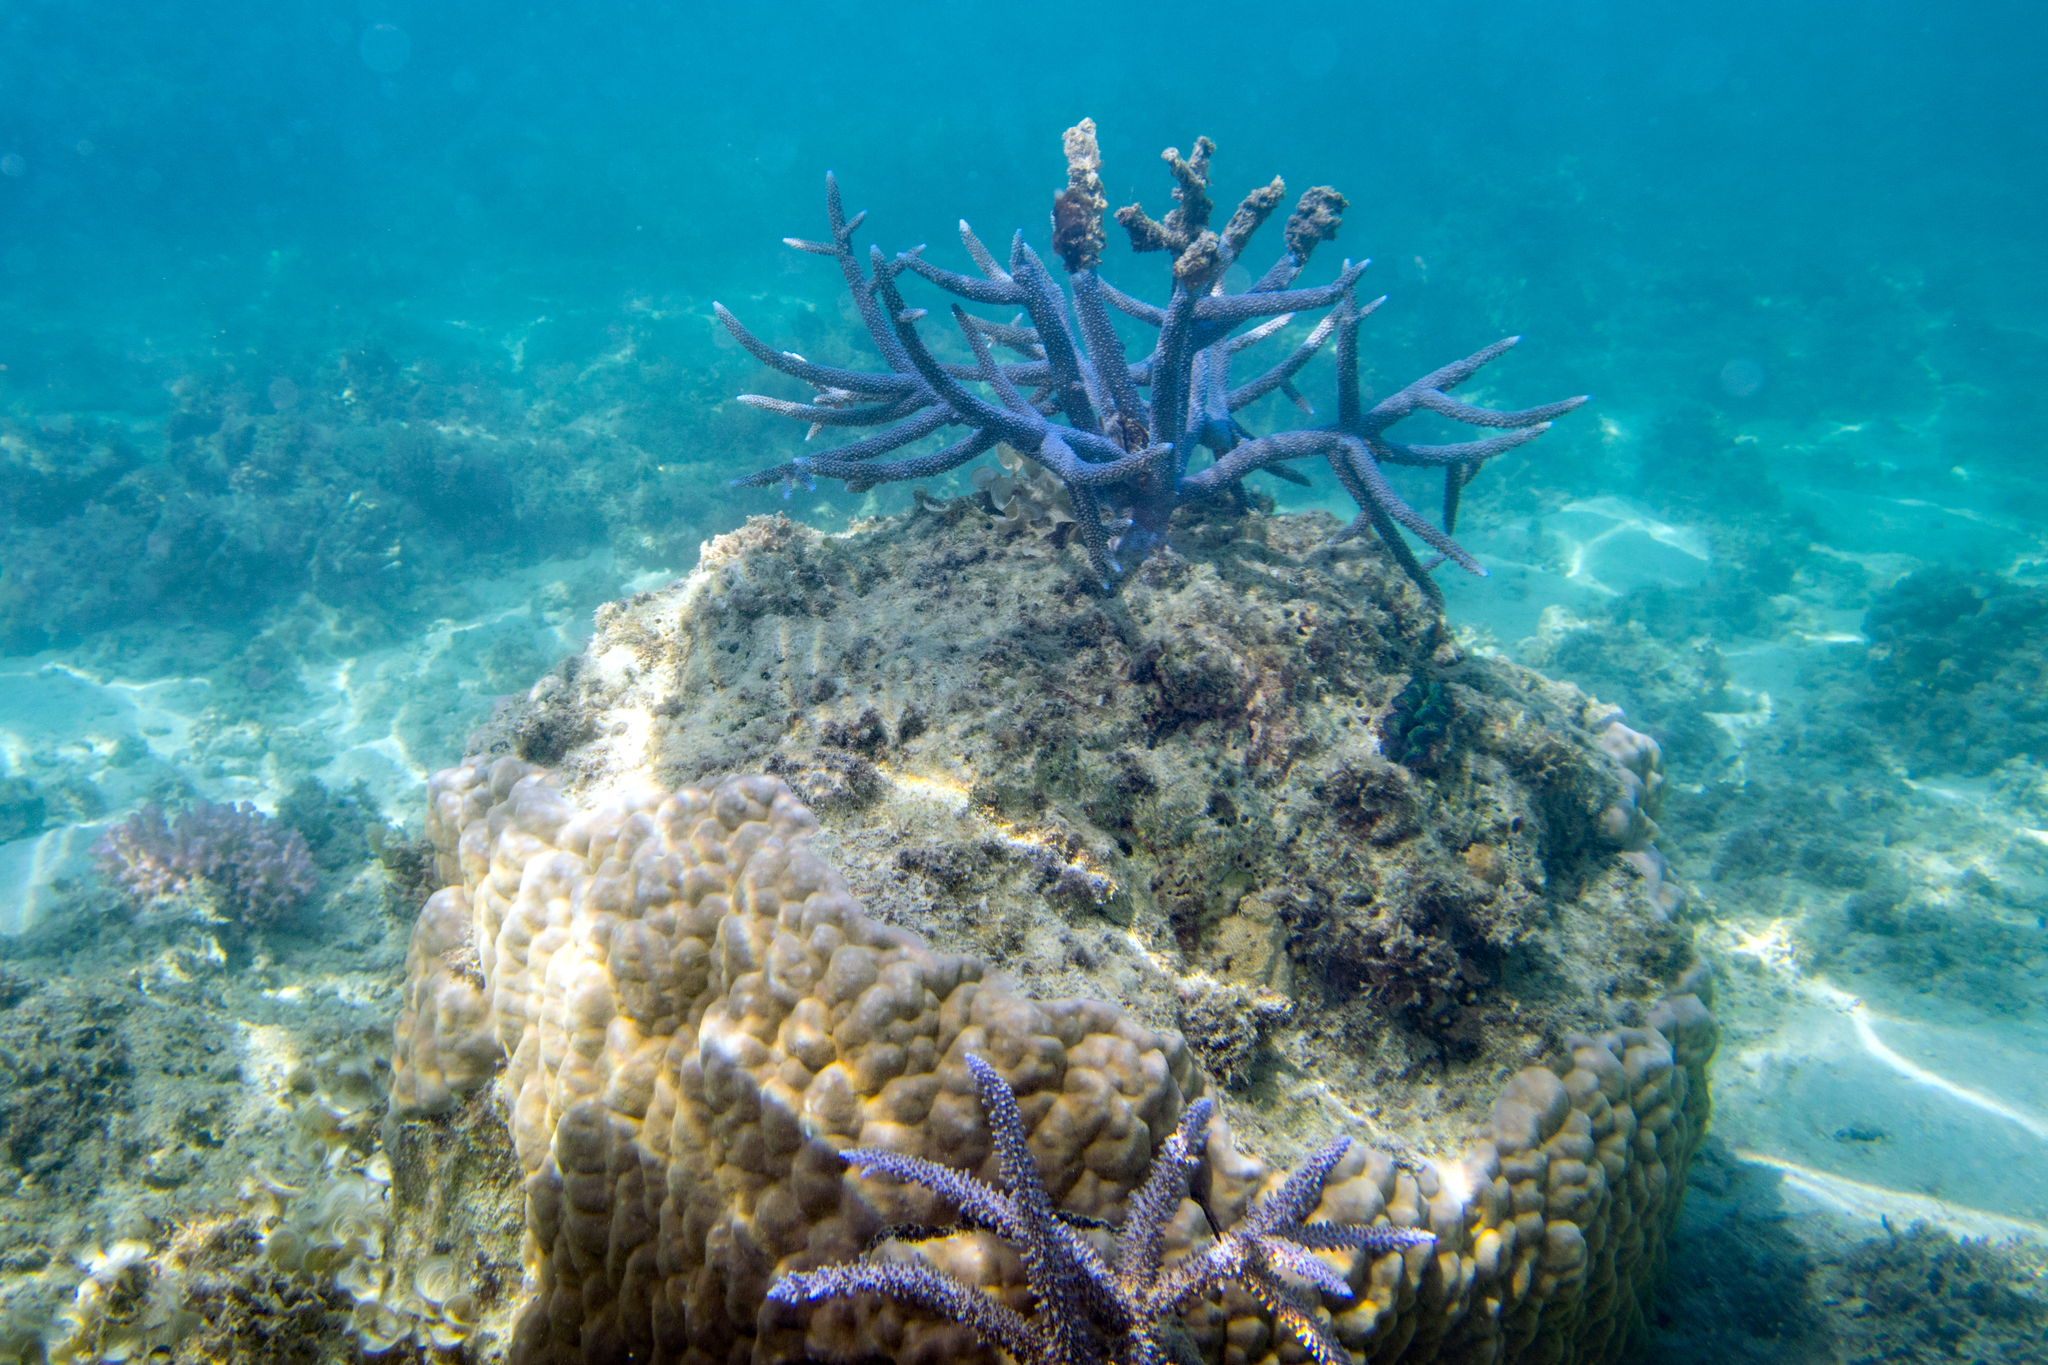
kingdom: Animalia
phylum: Cnidaria
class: Anthozoa
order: Scleractinia
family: Acroporidae
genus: Acropora
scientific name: Acropora muricata
